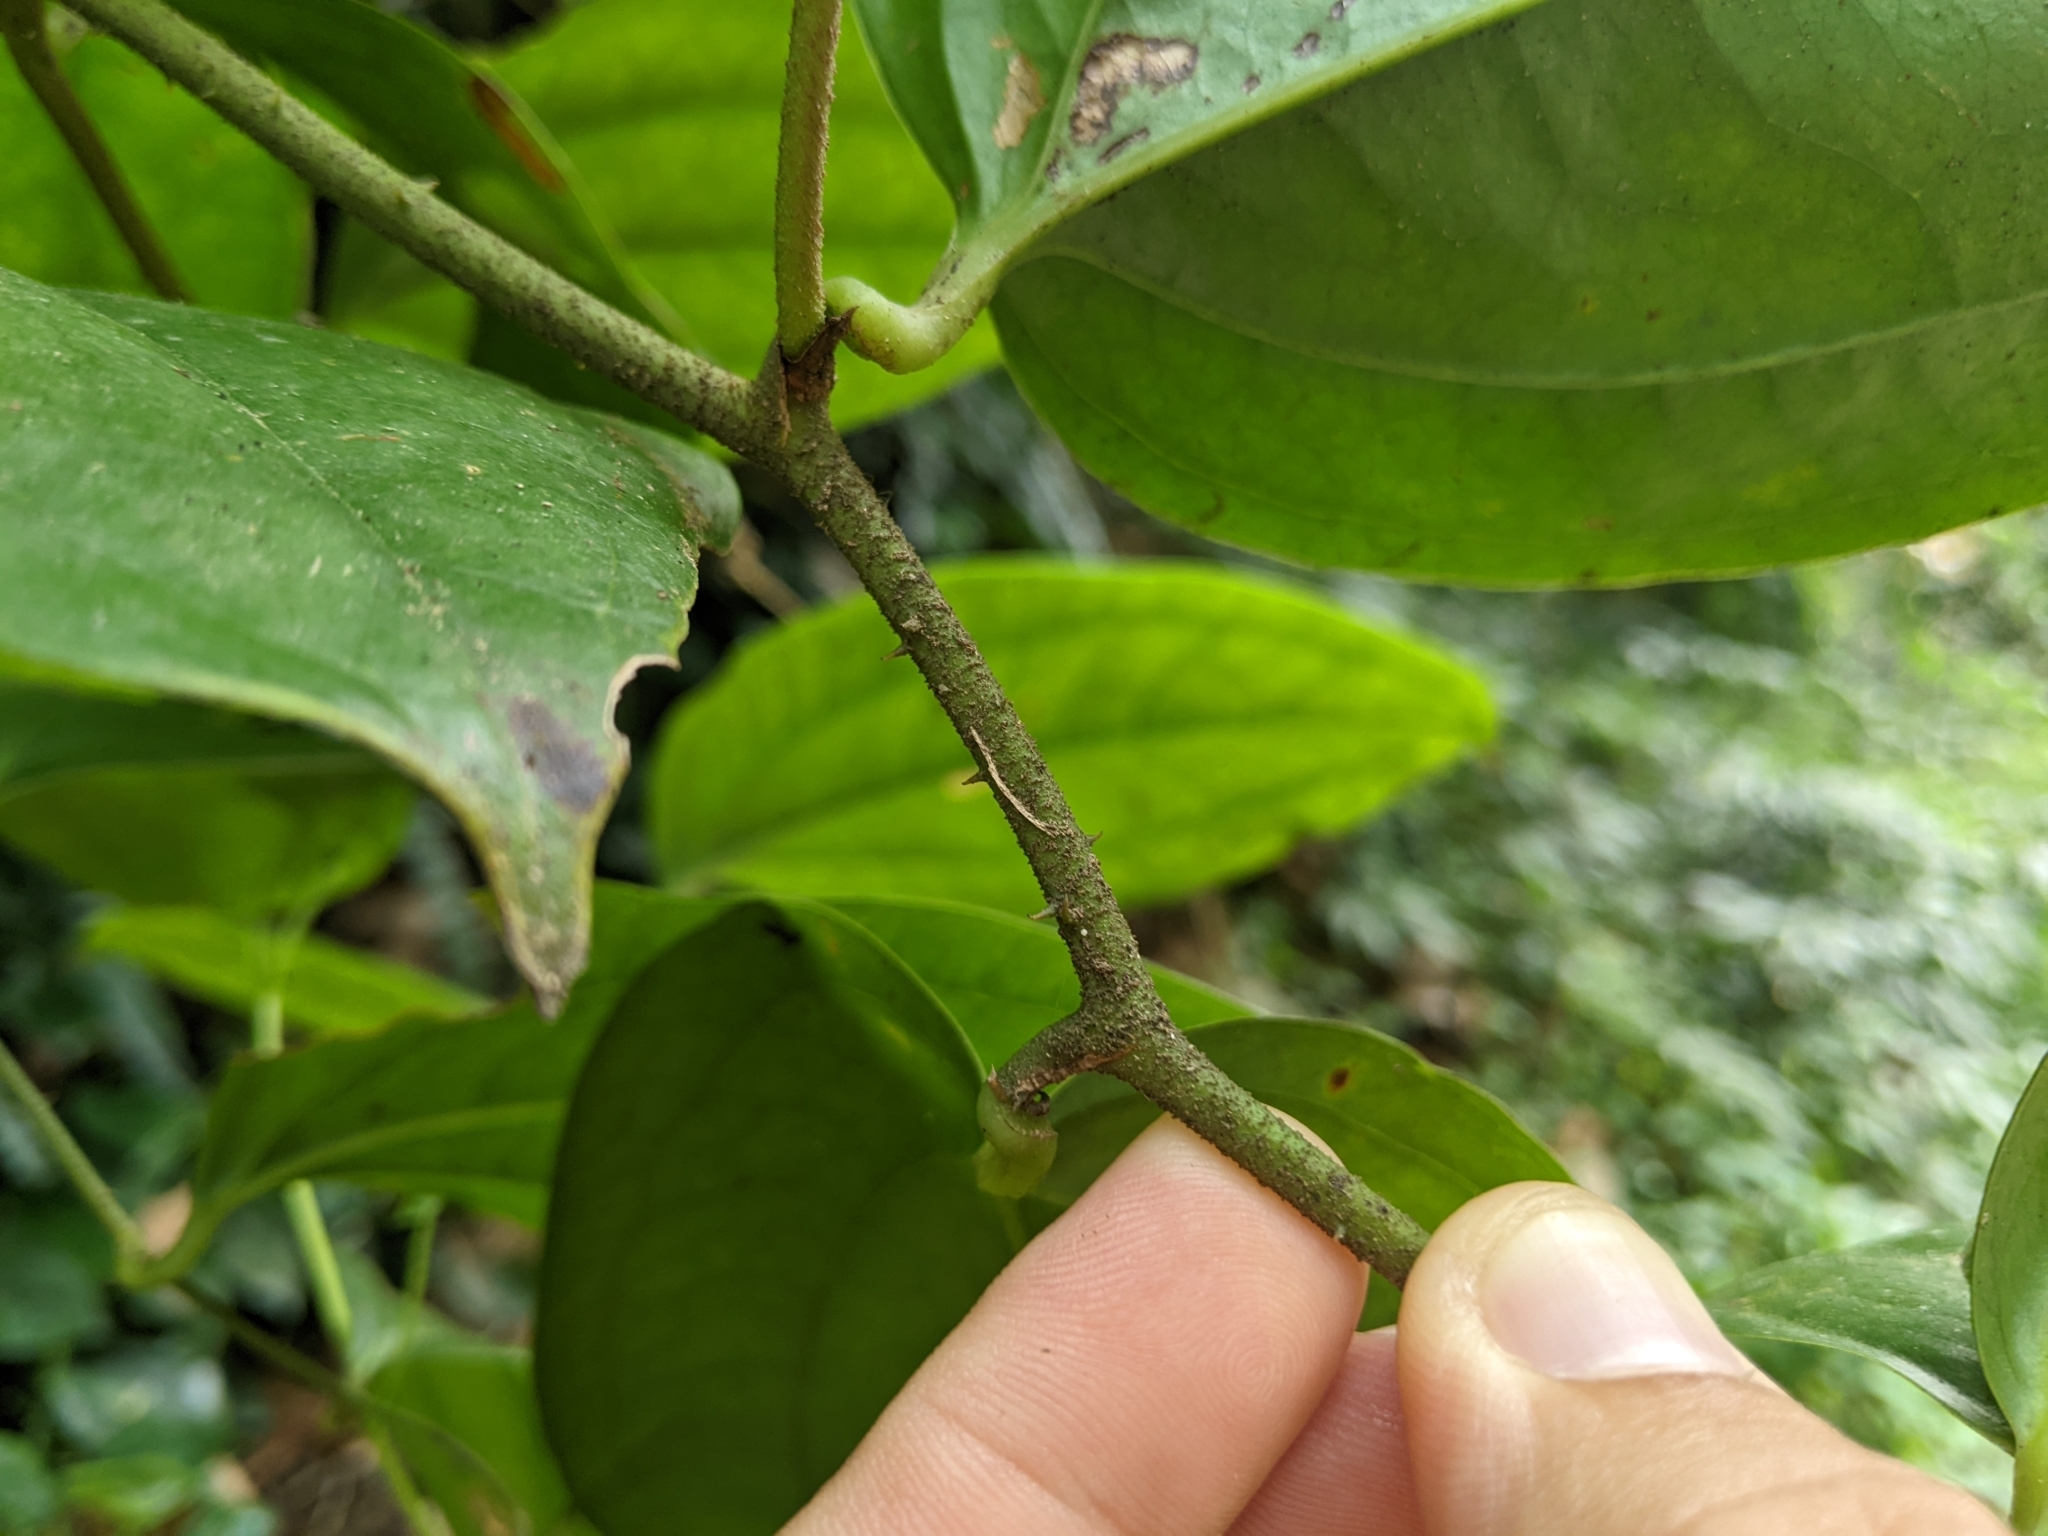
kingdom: Plantae
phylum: Tracheophyta
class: Liliopsida
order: Liliales
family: Smilacaceae
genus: Smilax
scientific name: Smilax aspericaulis
